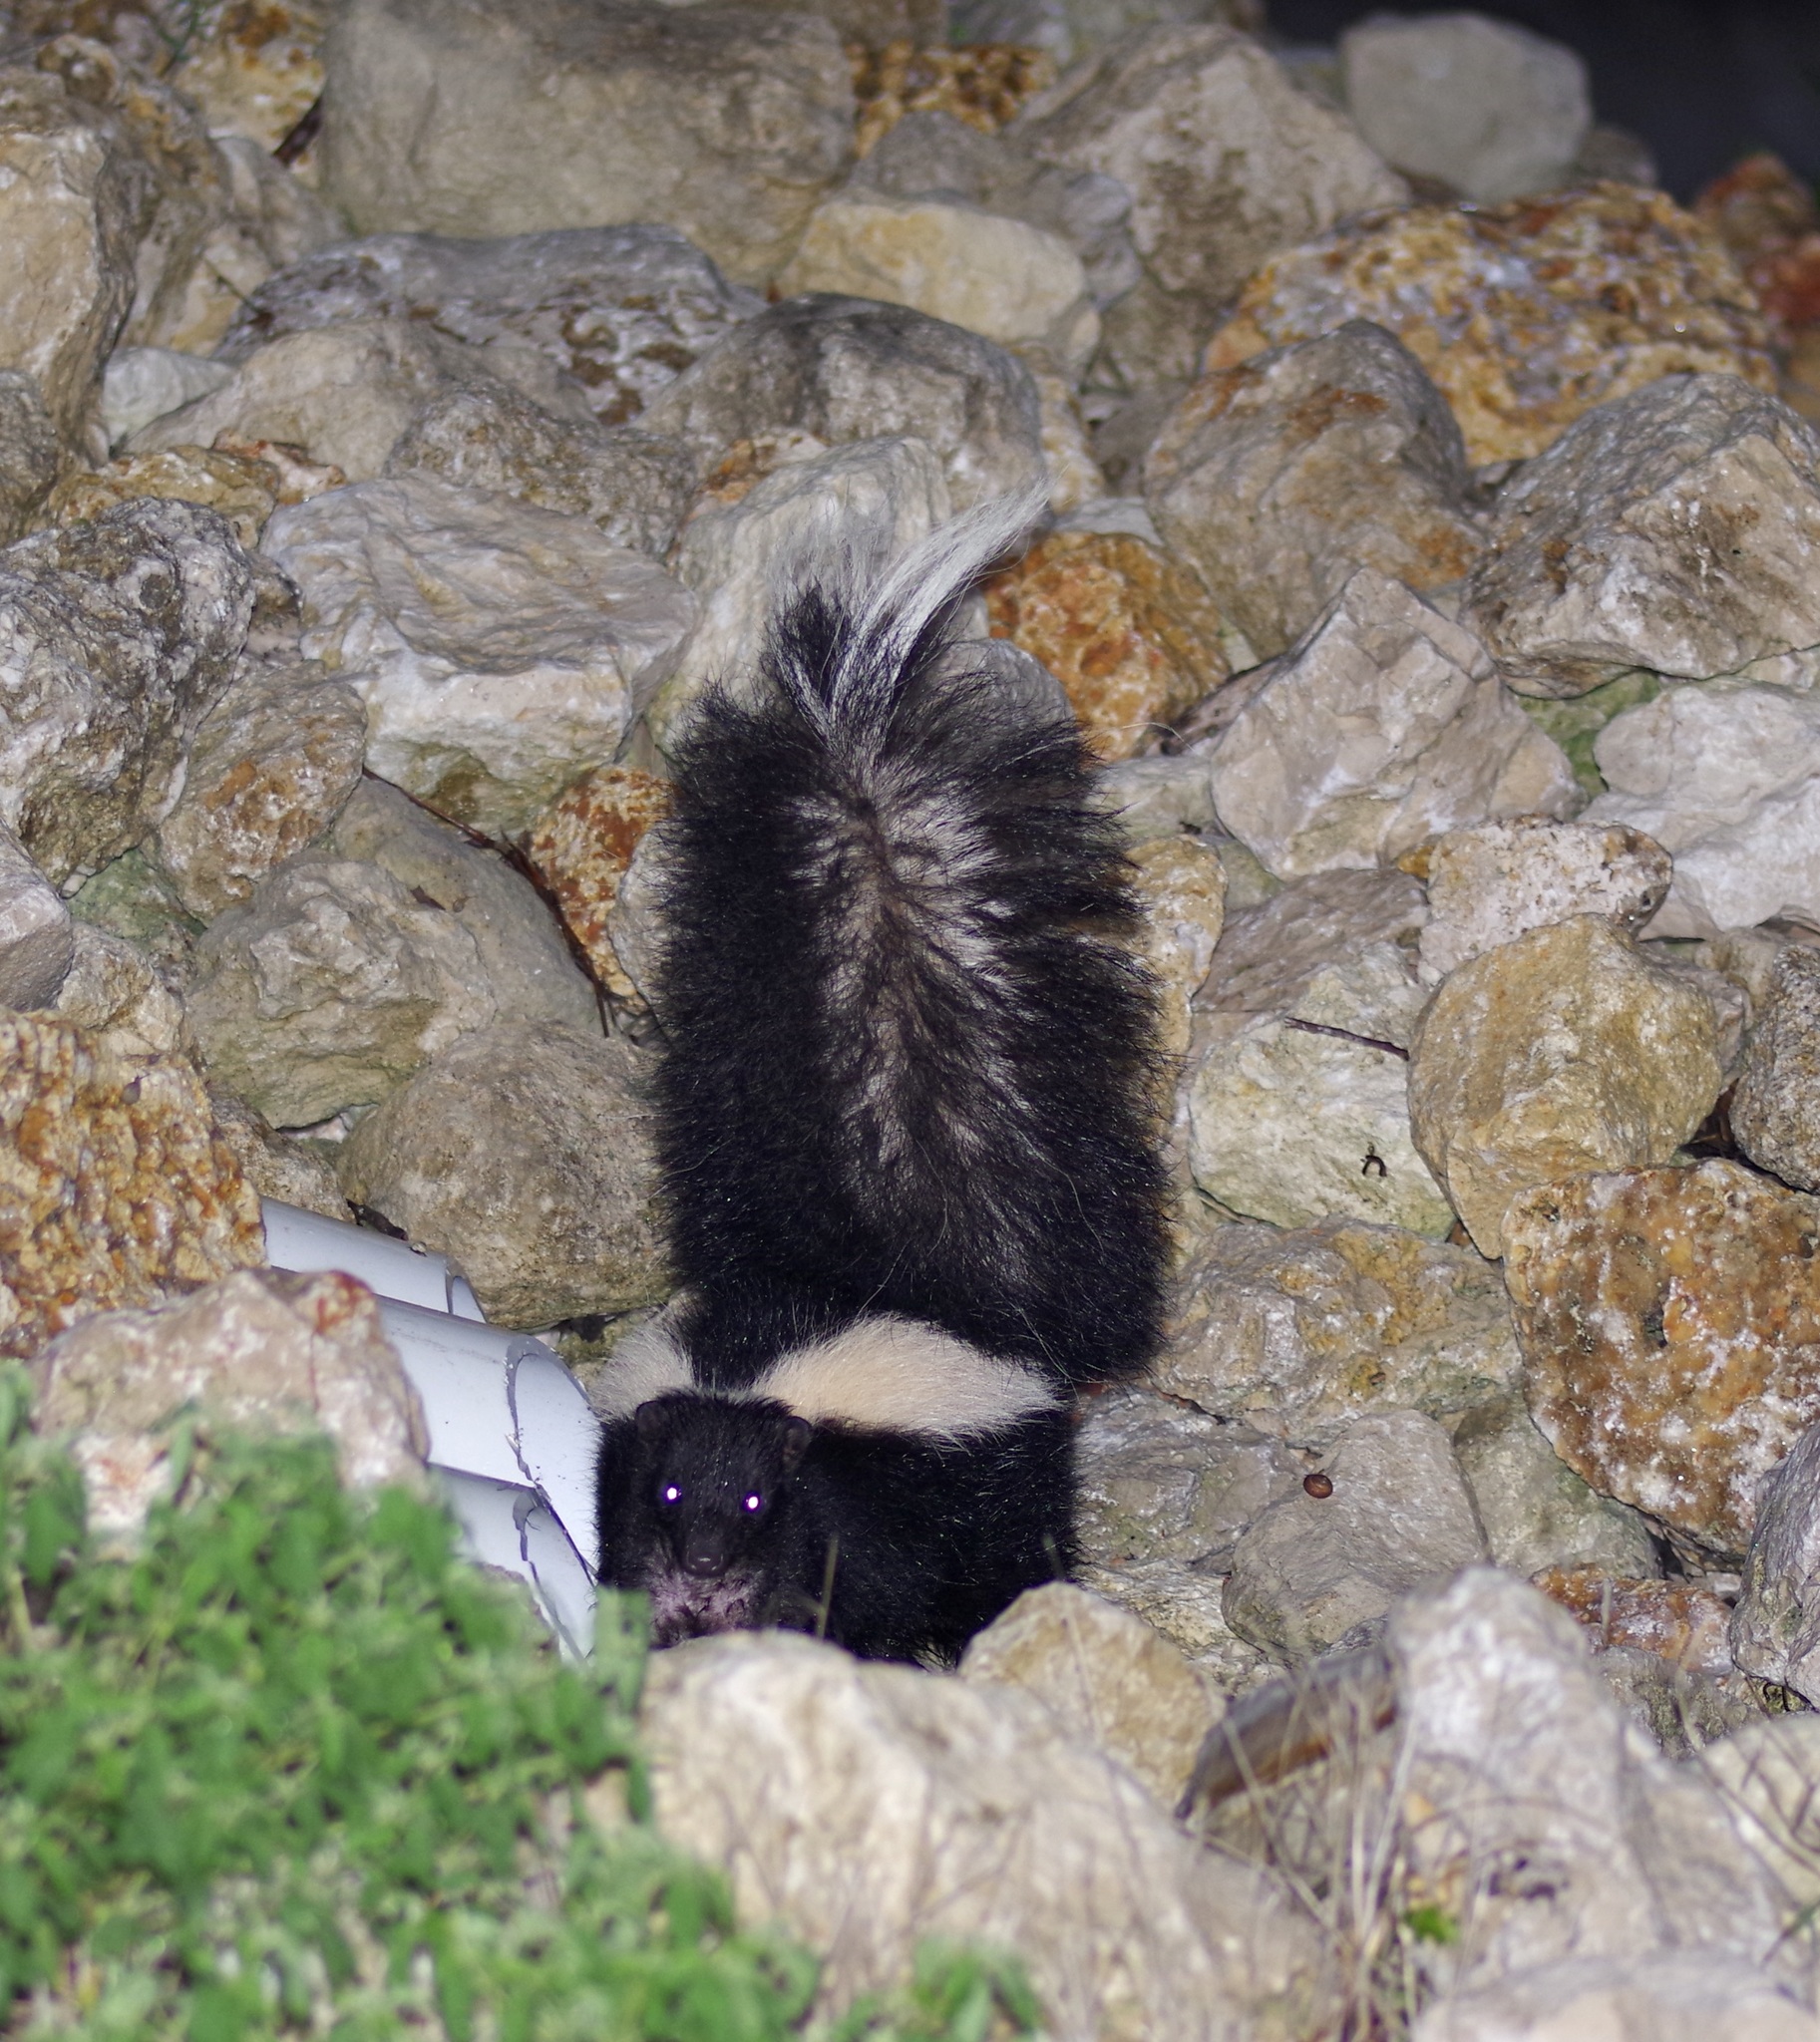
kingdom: Animalia
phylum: Chordata
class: Mammalia
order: Carnivora
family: Mephitidae
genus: Mephitis
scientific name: Mephitis mephitis
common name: Striped skunk
